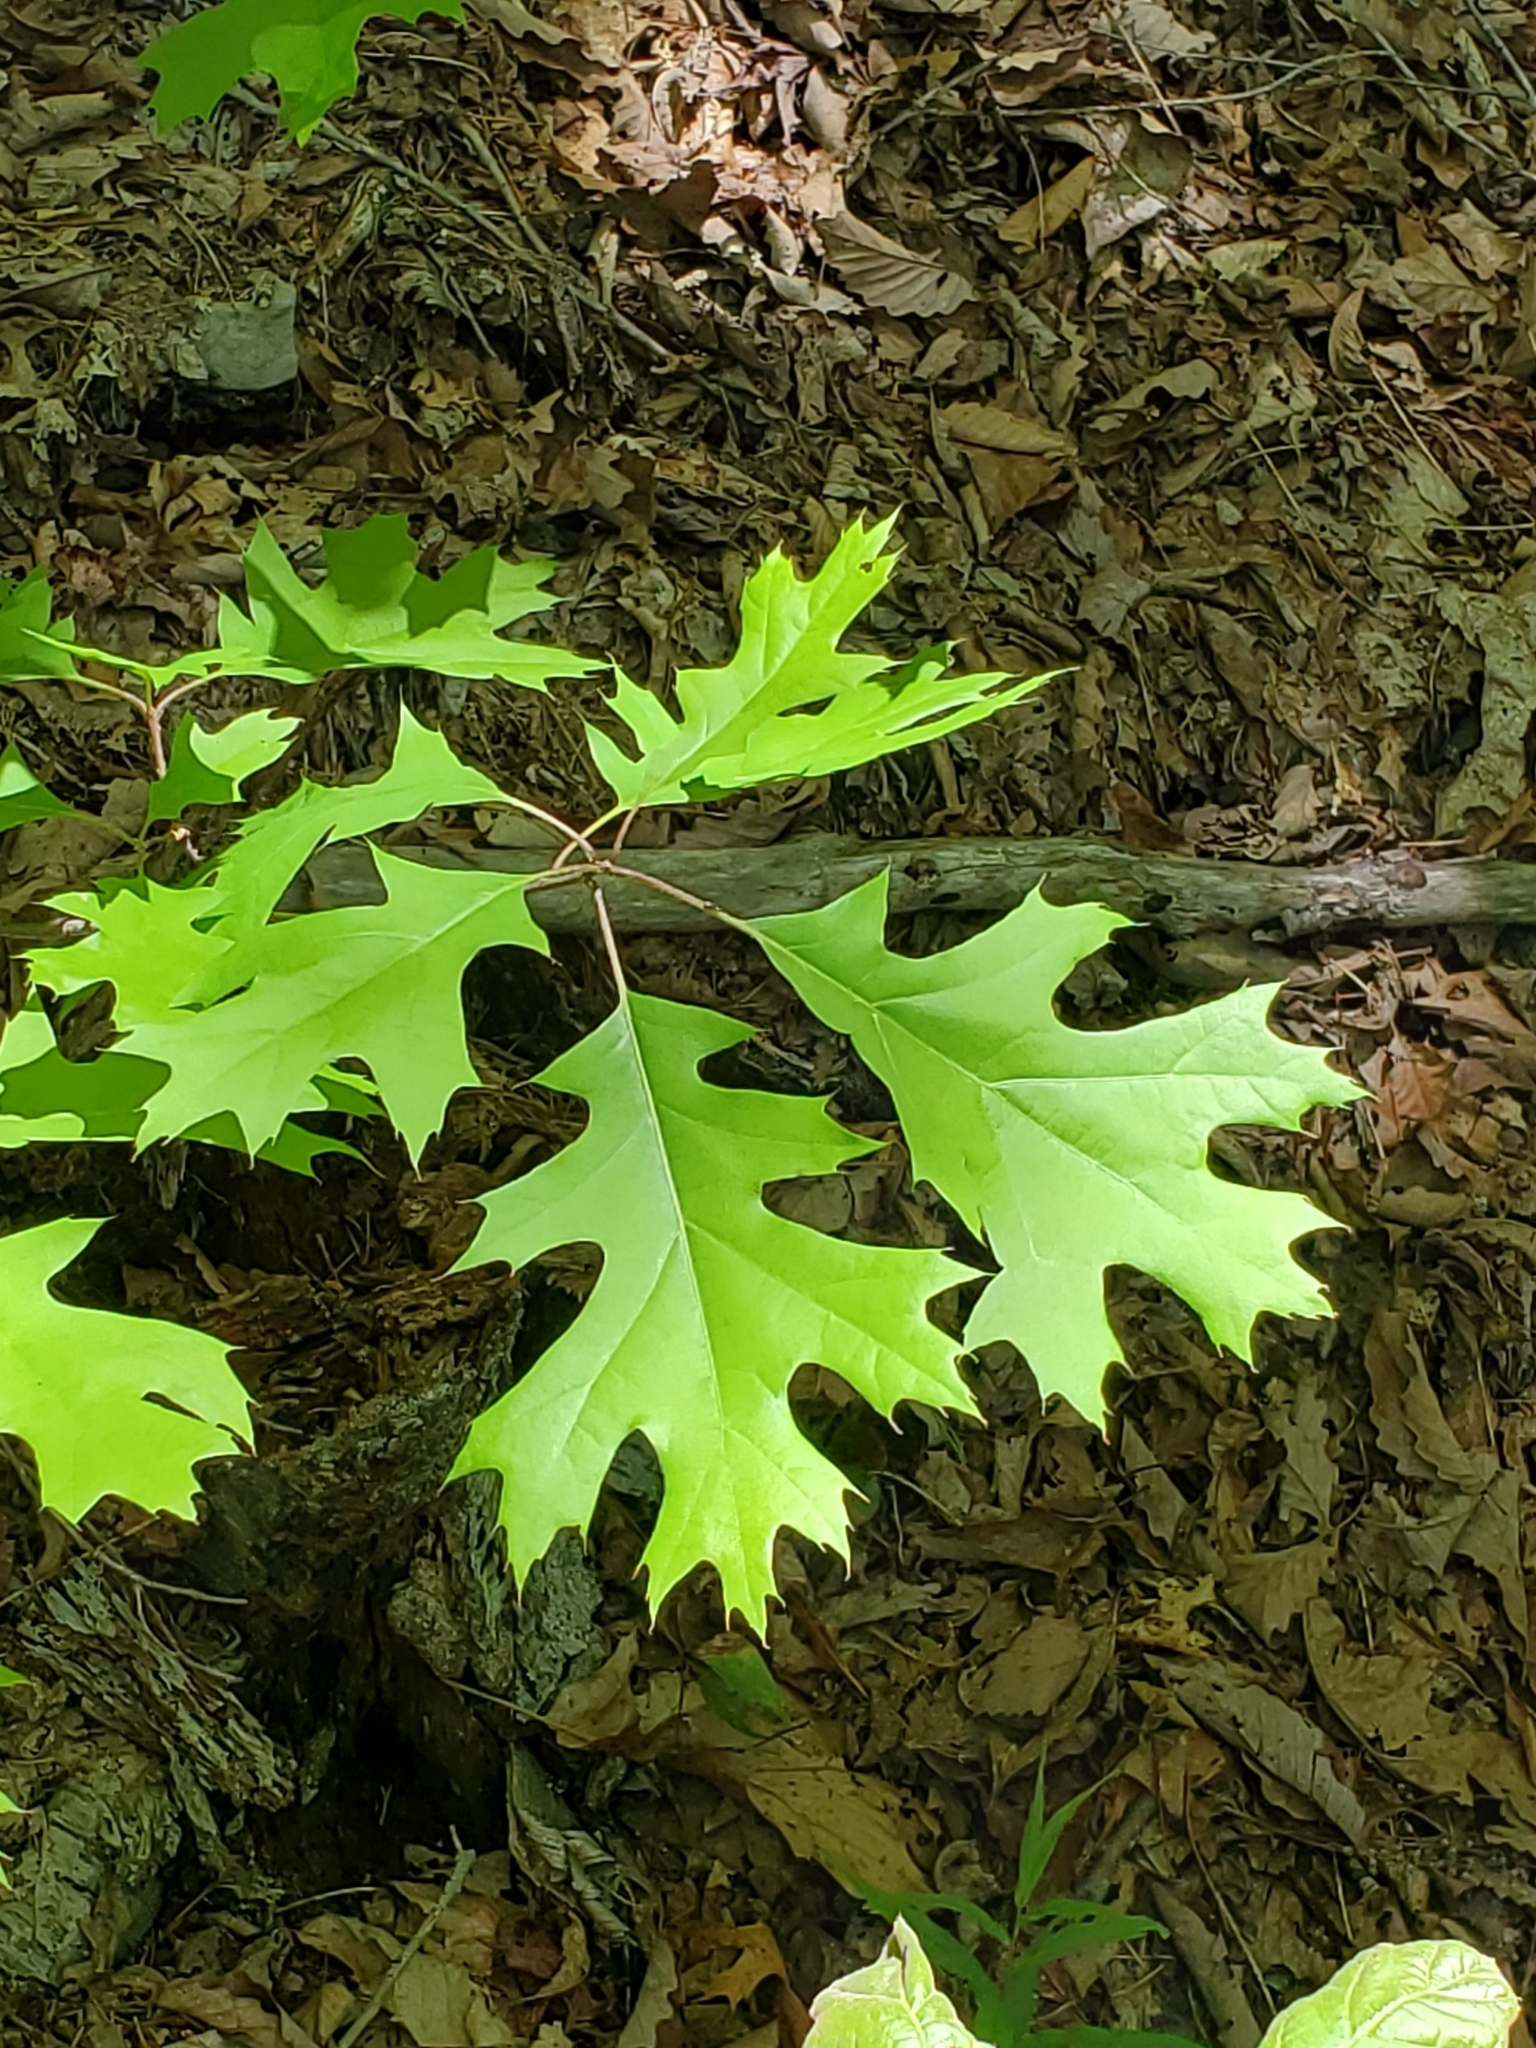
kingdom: Plantae
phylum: Tracheophyta
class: Magnoliopsida
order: Fagales
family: Fagaceae
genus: Quercus
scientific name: Quercus rubra
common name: Red oak
